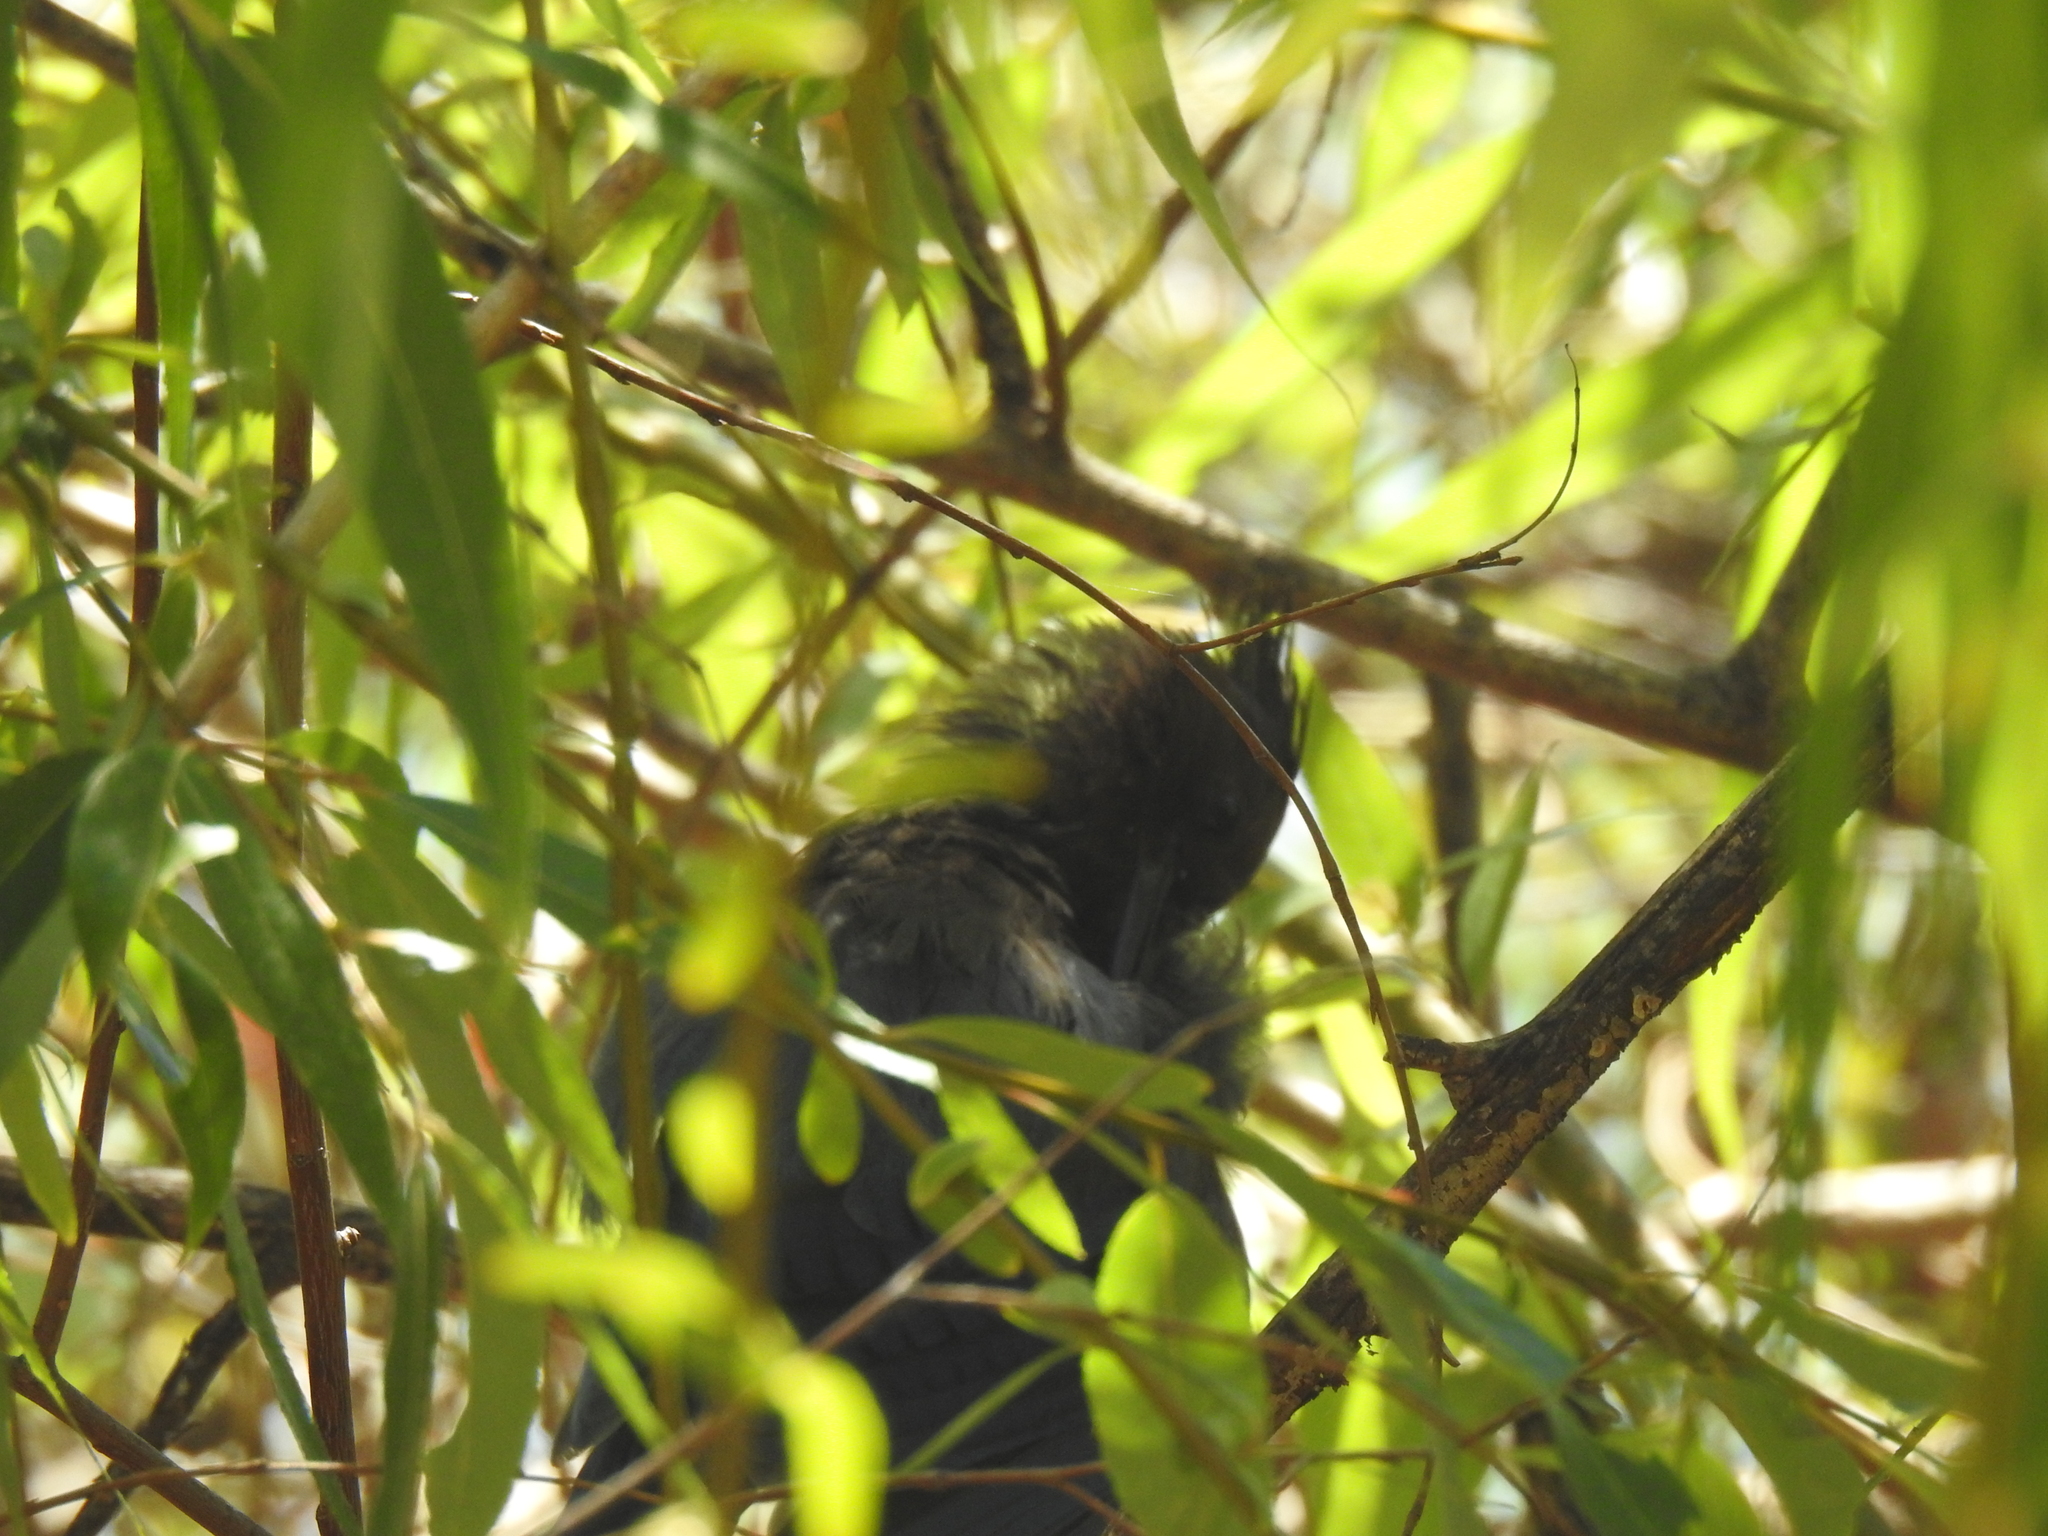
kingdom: Animalia
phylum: Chordata
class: Aves
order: Passeriformes
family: Corvidae
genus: Cyanocitta
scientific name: Cyanocitta stelleri
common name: Steller's jay
